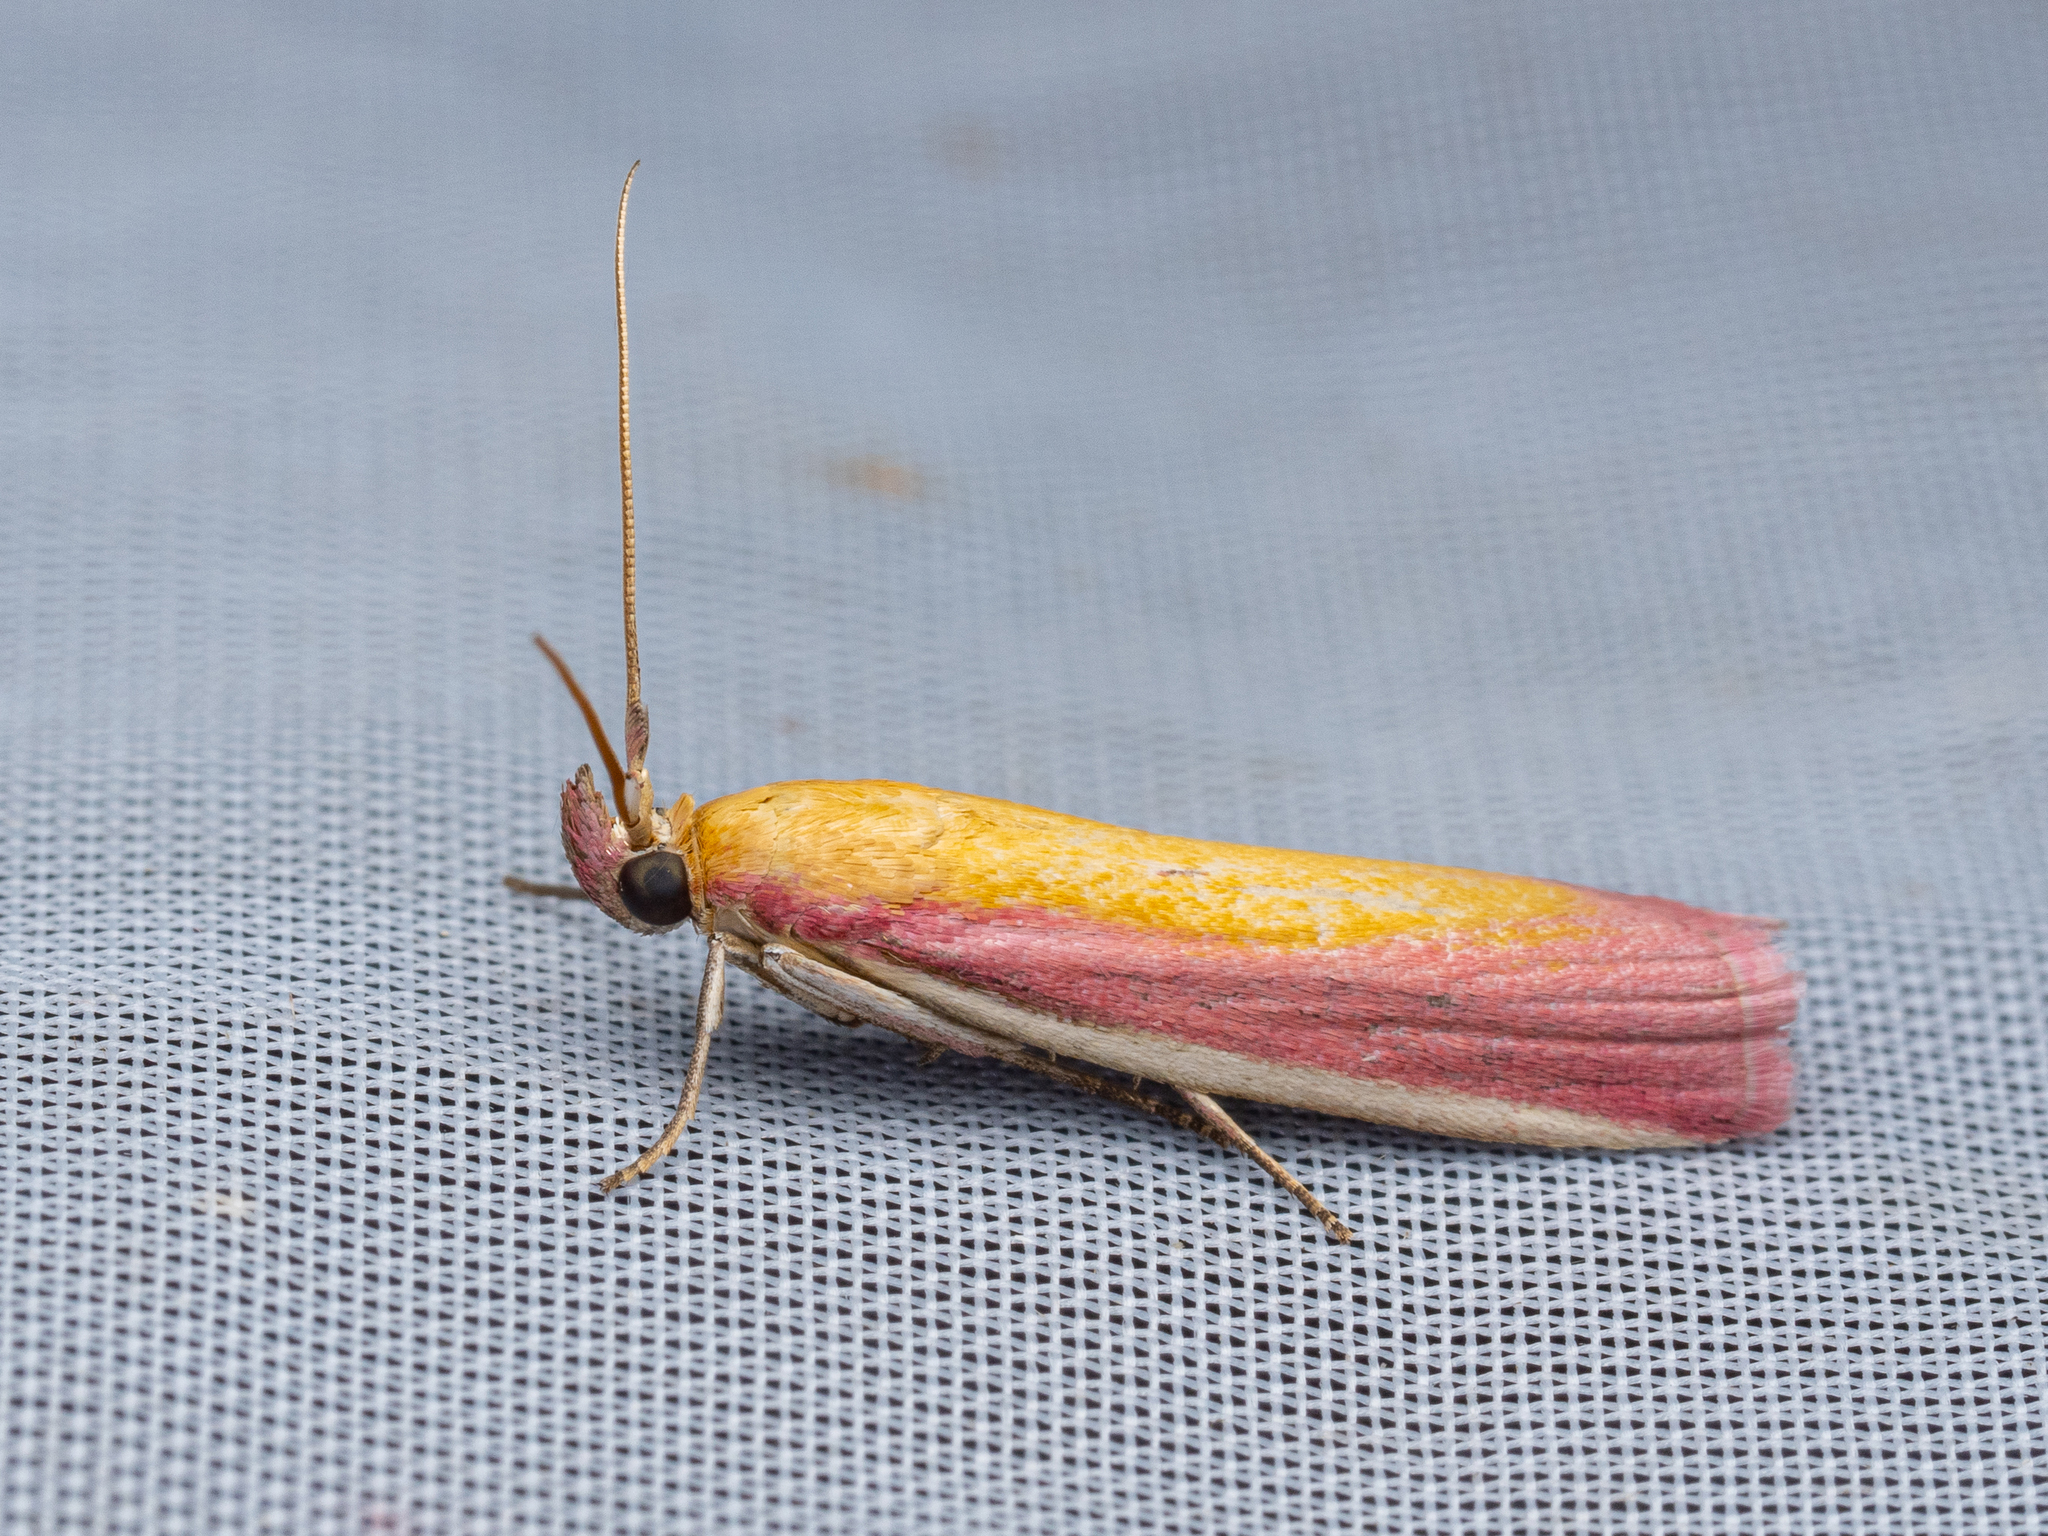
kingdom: Animalia
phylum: Arthropoda
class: Insecta
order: Lepidoptera
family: Pyralidae
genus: Oncocera
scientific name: Oncocera semirubella
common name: Rosy-striped knot-horn
